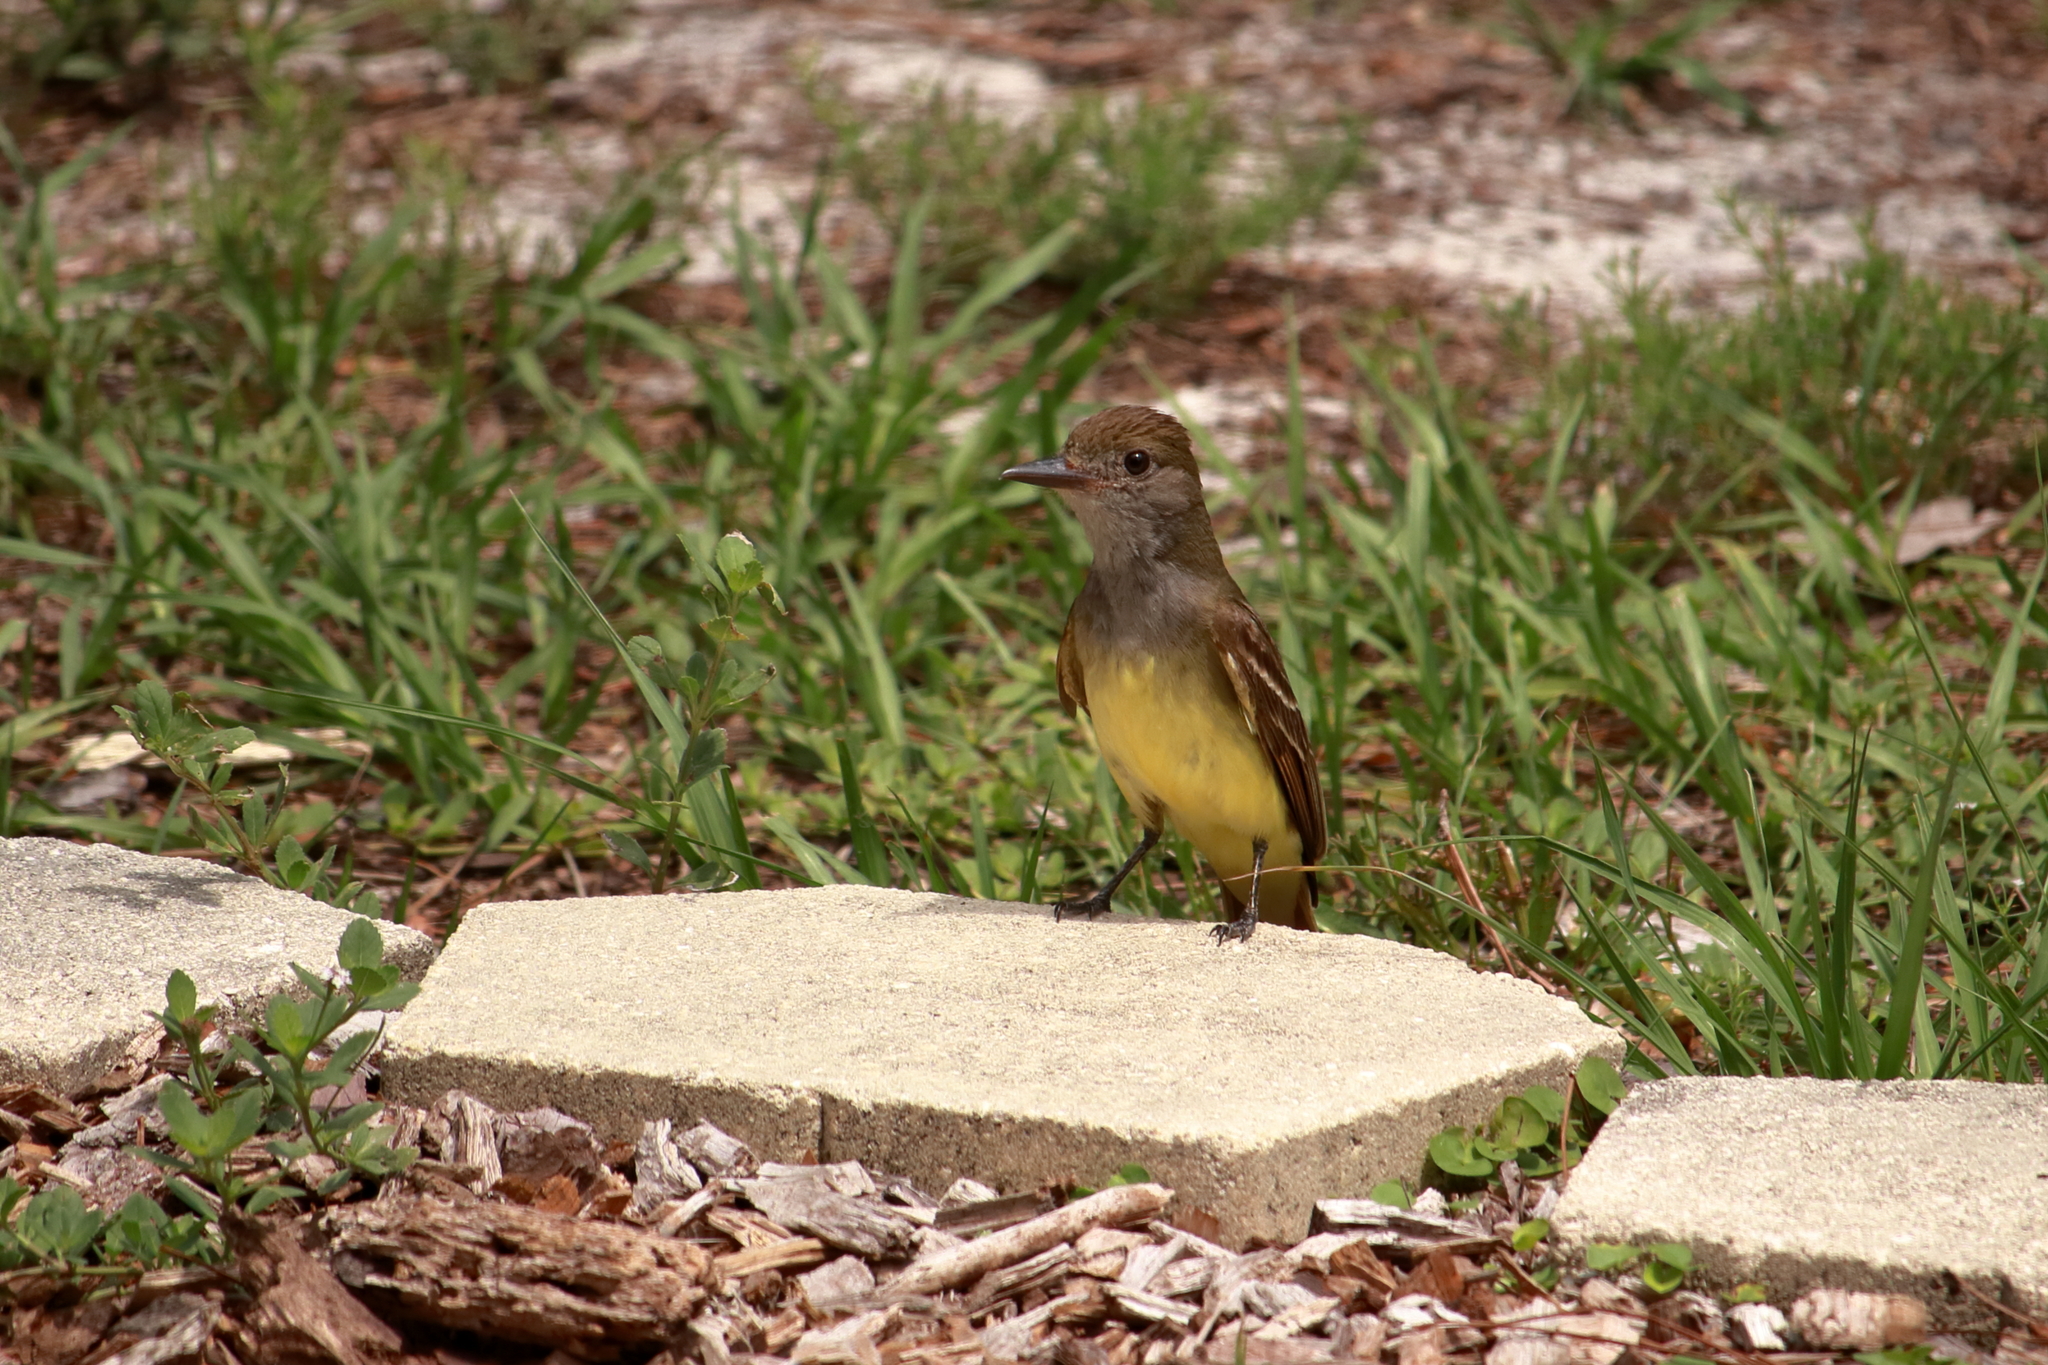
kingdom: Animalia
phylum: Chordata
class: Aves
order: Passeriformes
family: Tyrannidae
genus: Myiarchus
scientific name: Myiarchus crinitus
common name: Great crested flycatcher
